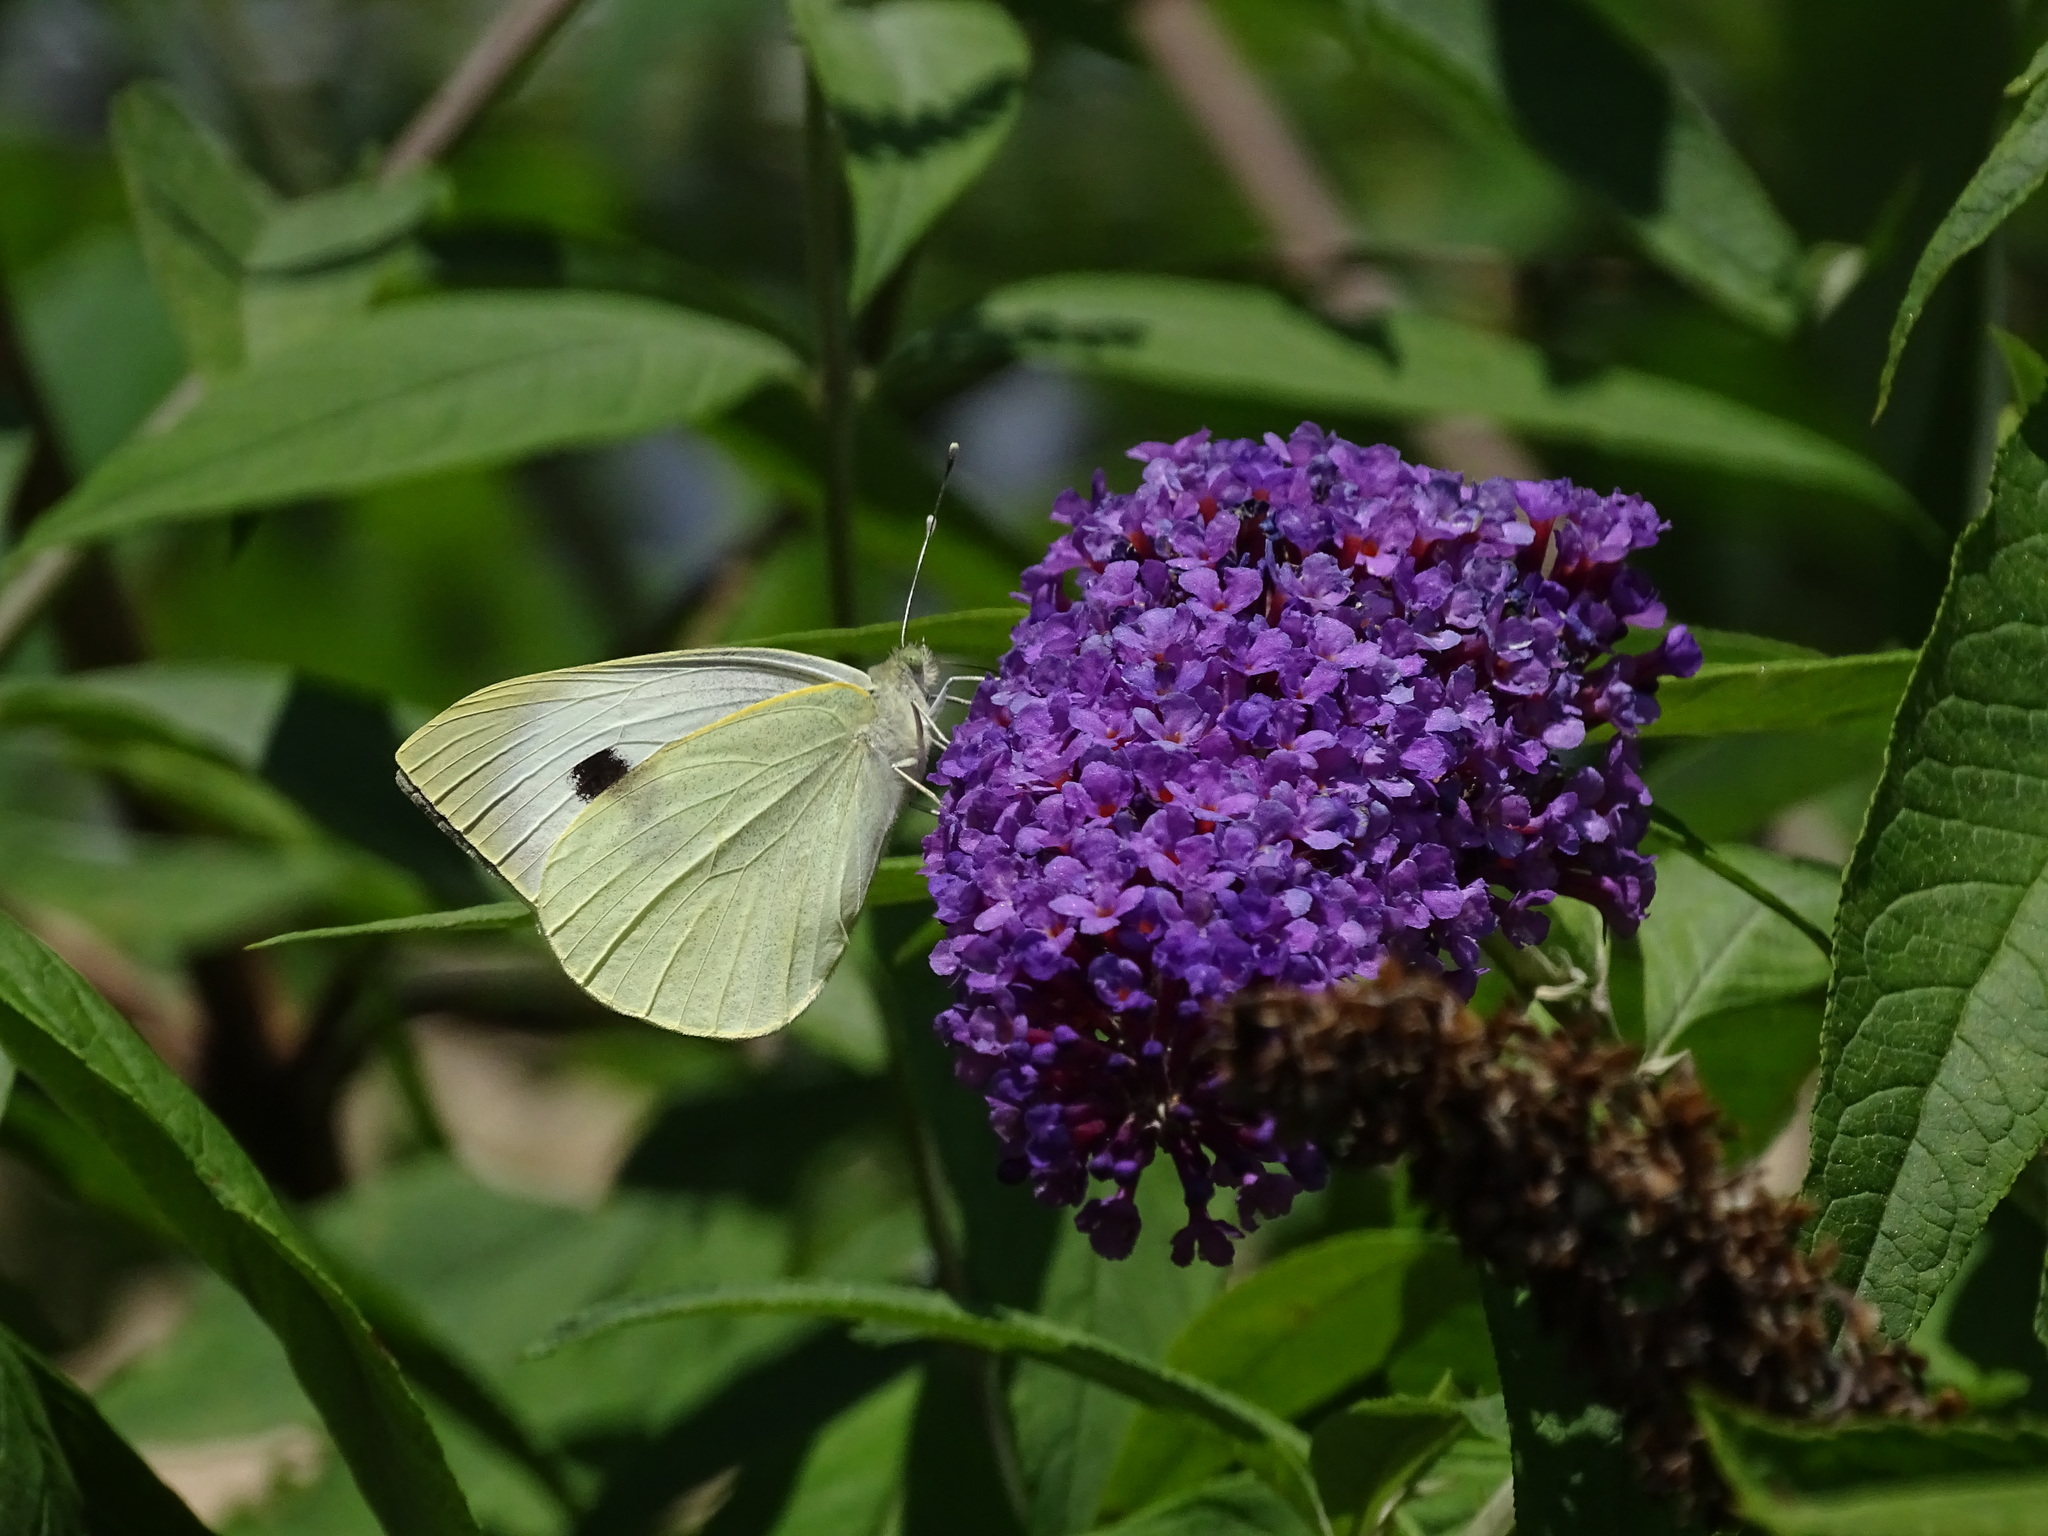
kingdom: Animalia
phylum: Arthropoda
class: Insecta
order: Lepidoptera
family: Pieridae
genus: Pieris
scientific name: Pieris brassicae
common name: Large white
